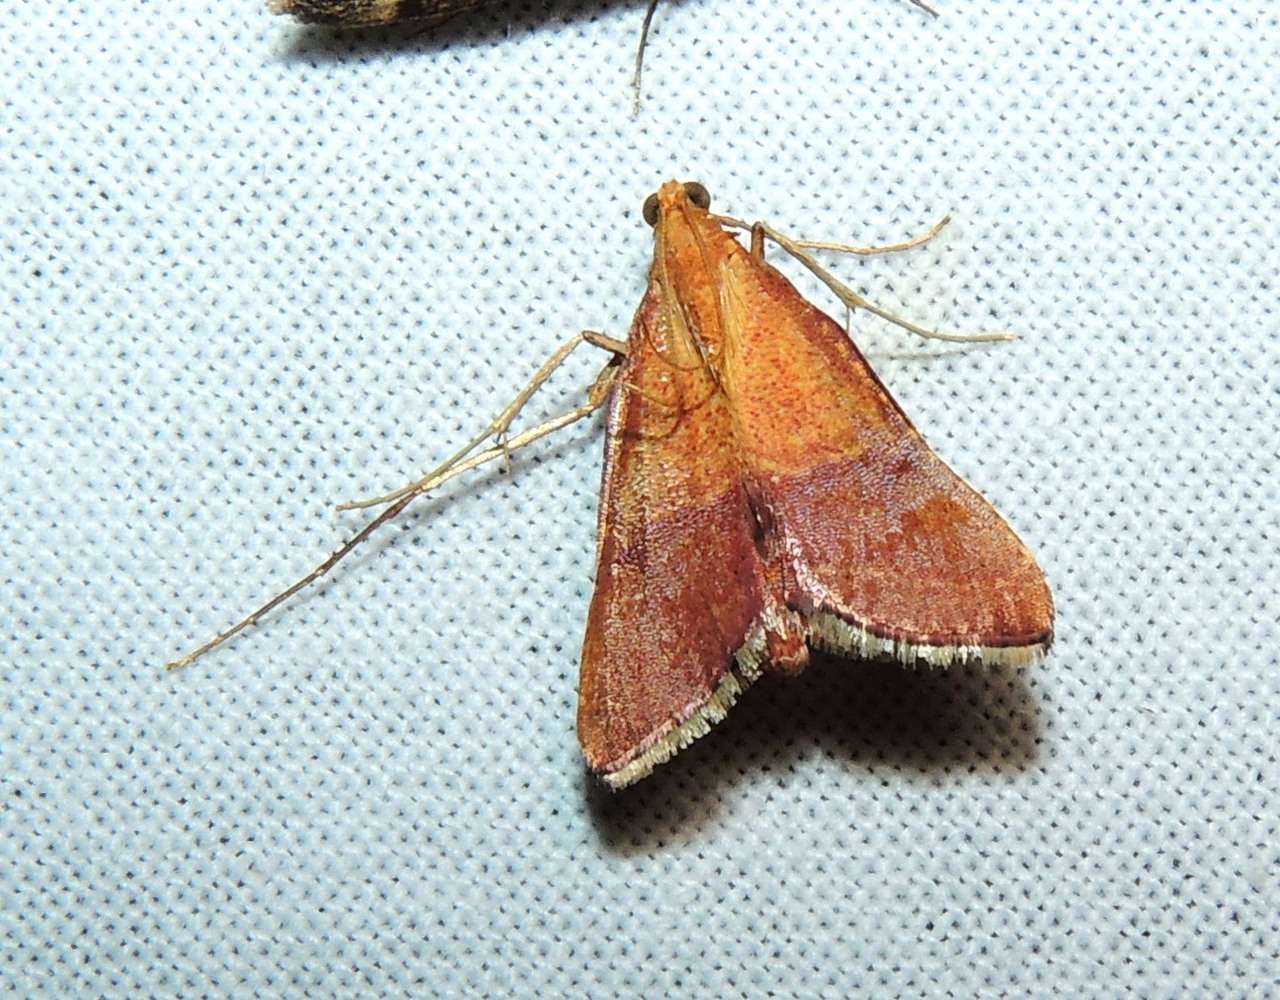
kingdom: Animalia
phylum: Arthropoda
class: Insecta
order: Lepidoptera
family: Pyralidae
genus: Endotricha
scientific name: Endotricha pyrosalis
